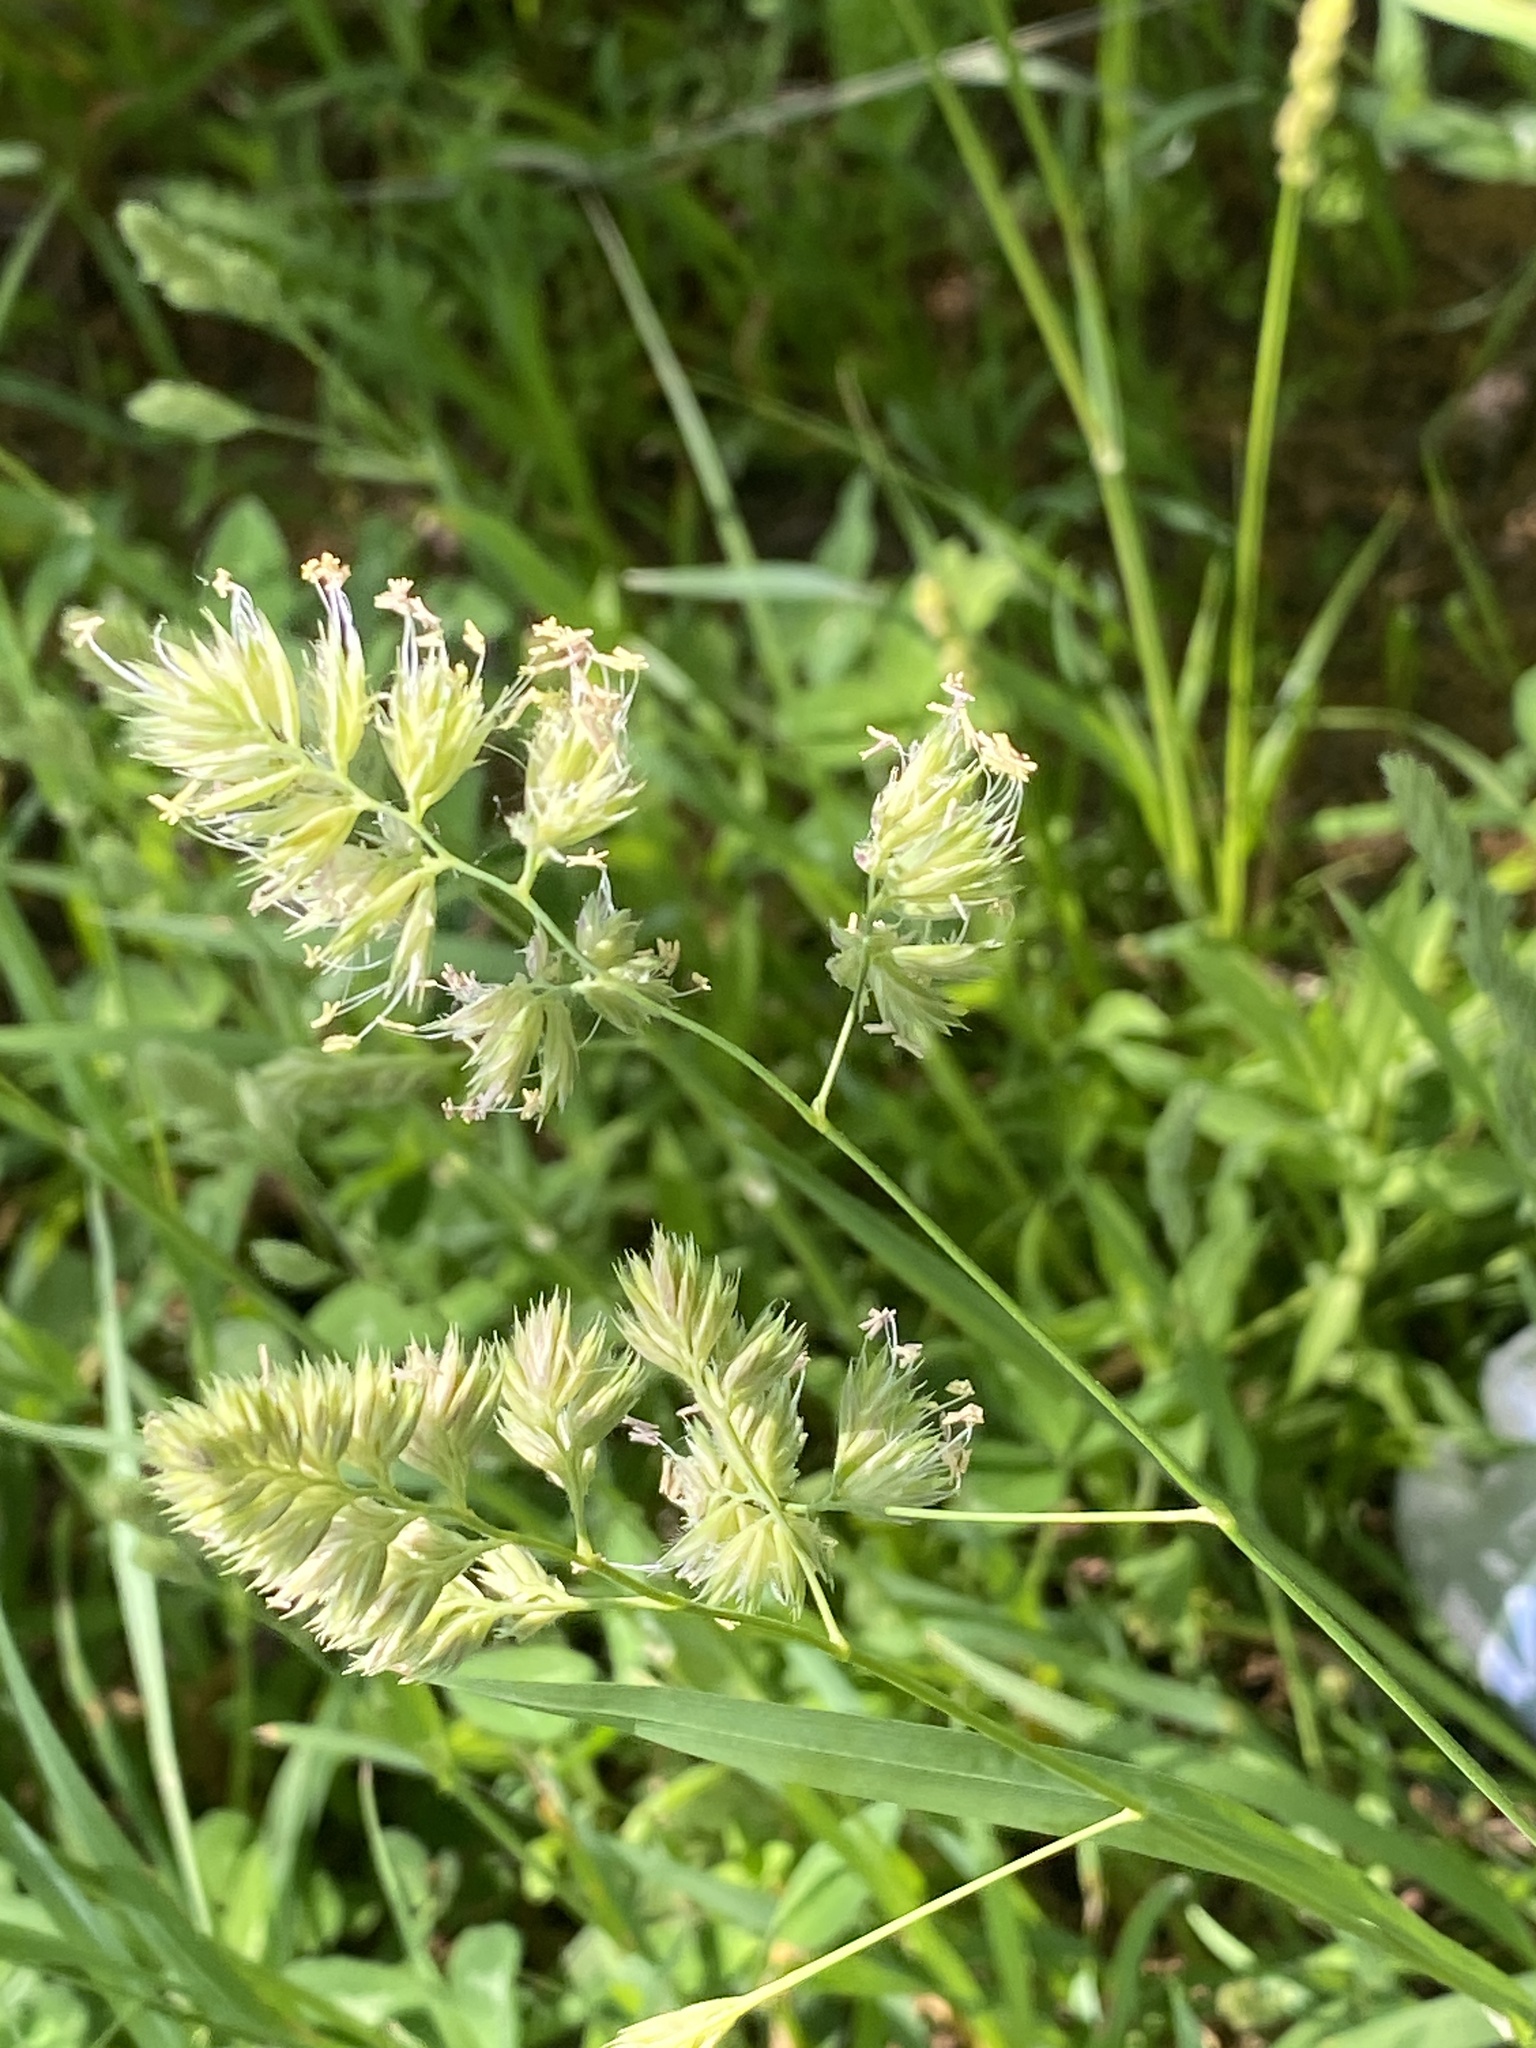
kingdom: Plantae
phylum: Tracheophyta
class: Liliopsida
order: Poales
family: Poaceae
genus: Dactylis
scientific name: Dactylis glomerata
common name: Orchardgrass
